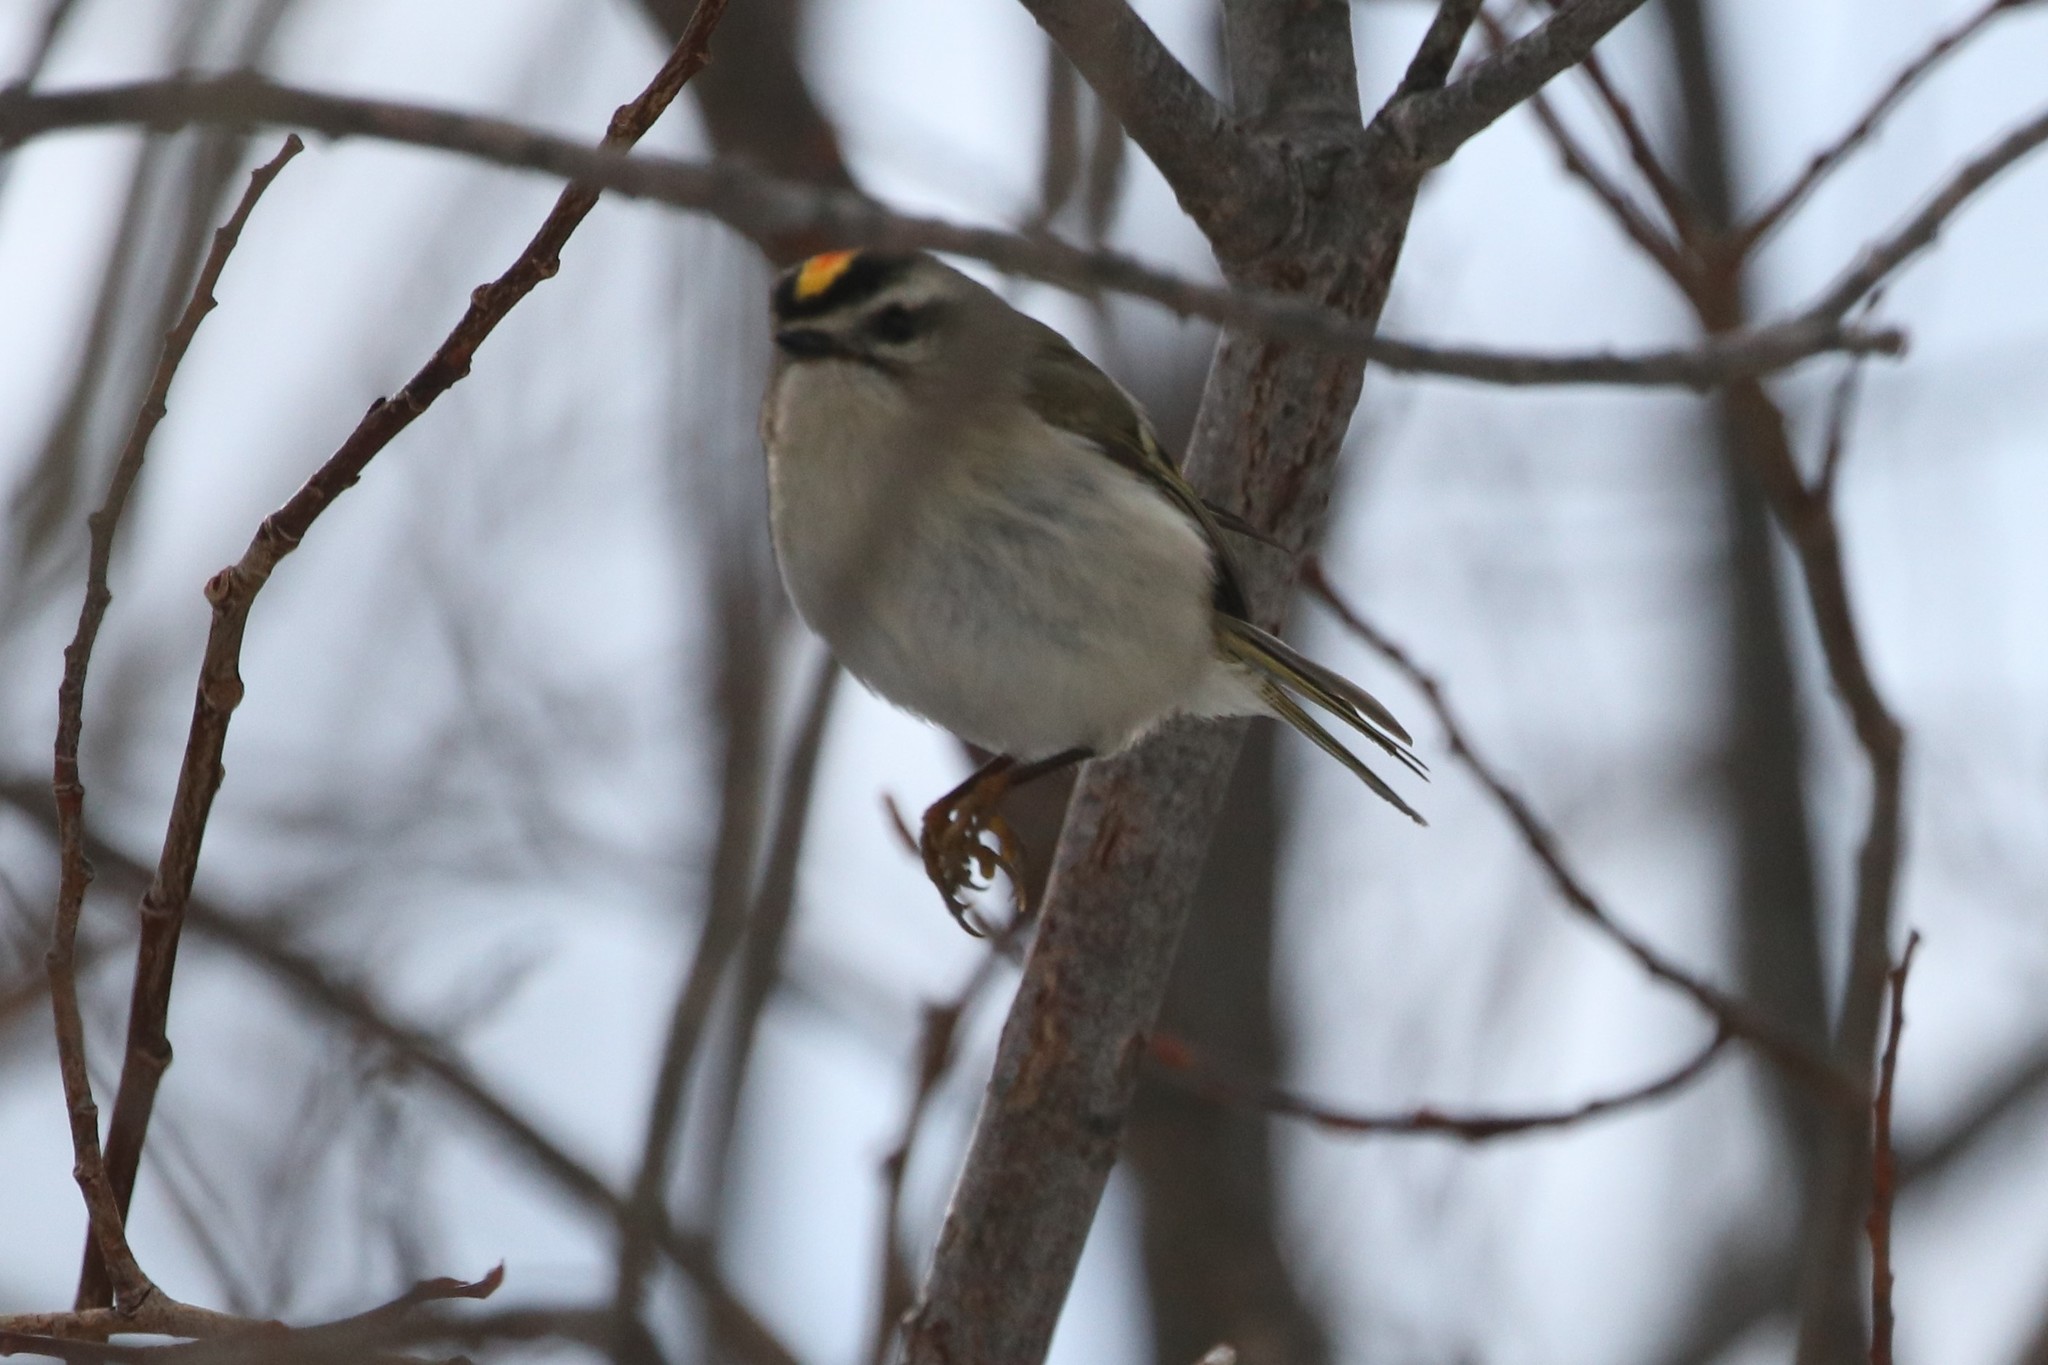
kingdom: Animalia
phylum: Chordata
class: Aves
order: Passeriformes
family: Regulidae
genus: Regulus
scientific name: Regulus satrapa
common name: Golden-crowned kinglet
